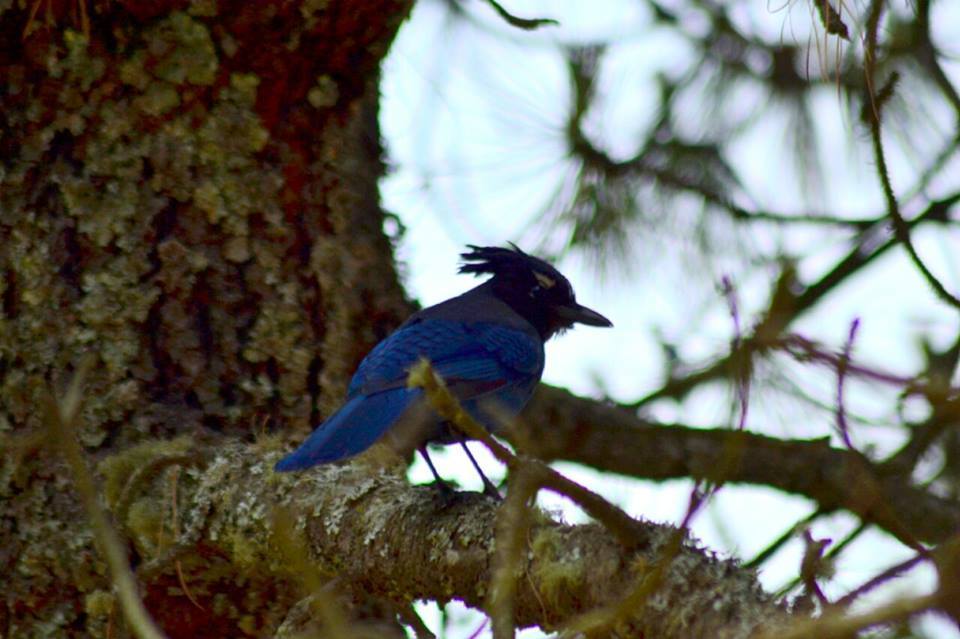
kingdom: Animalia
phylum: Chordata
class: Aves
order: Passeriformes
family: Corvidae
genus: Cyanocitta
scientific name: Cyanocitta stelleri
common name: Steller's jay
